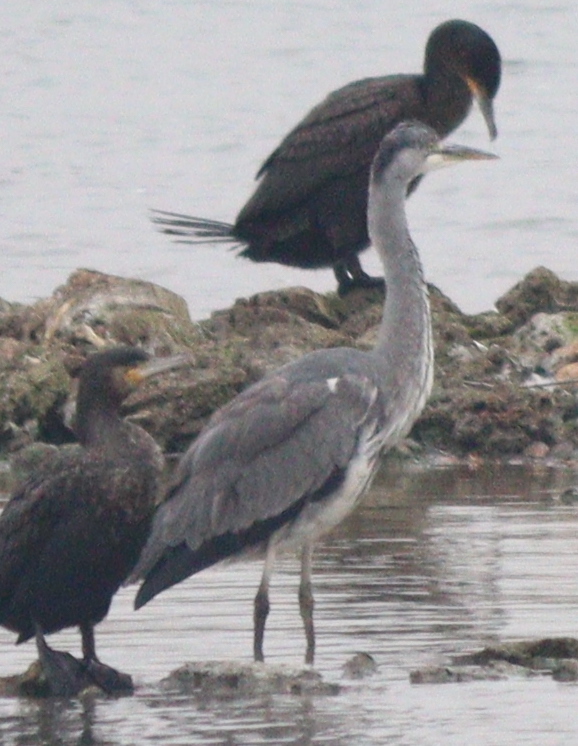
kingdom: Animalia
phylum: Chordata
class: Aves
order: Pelecaniformes
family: Ardeidae
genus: Ardea
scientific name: Ardea cinerea
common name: Grey heron
